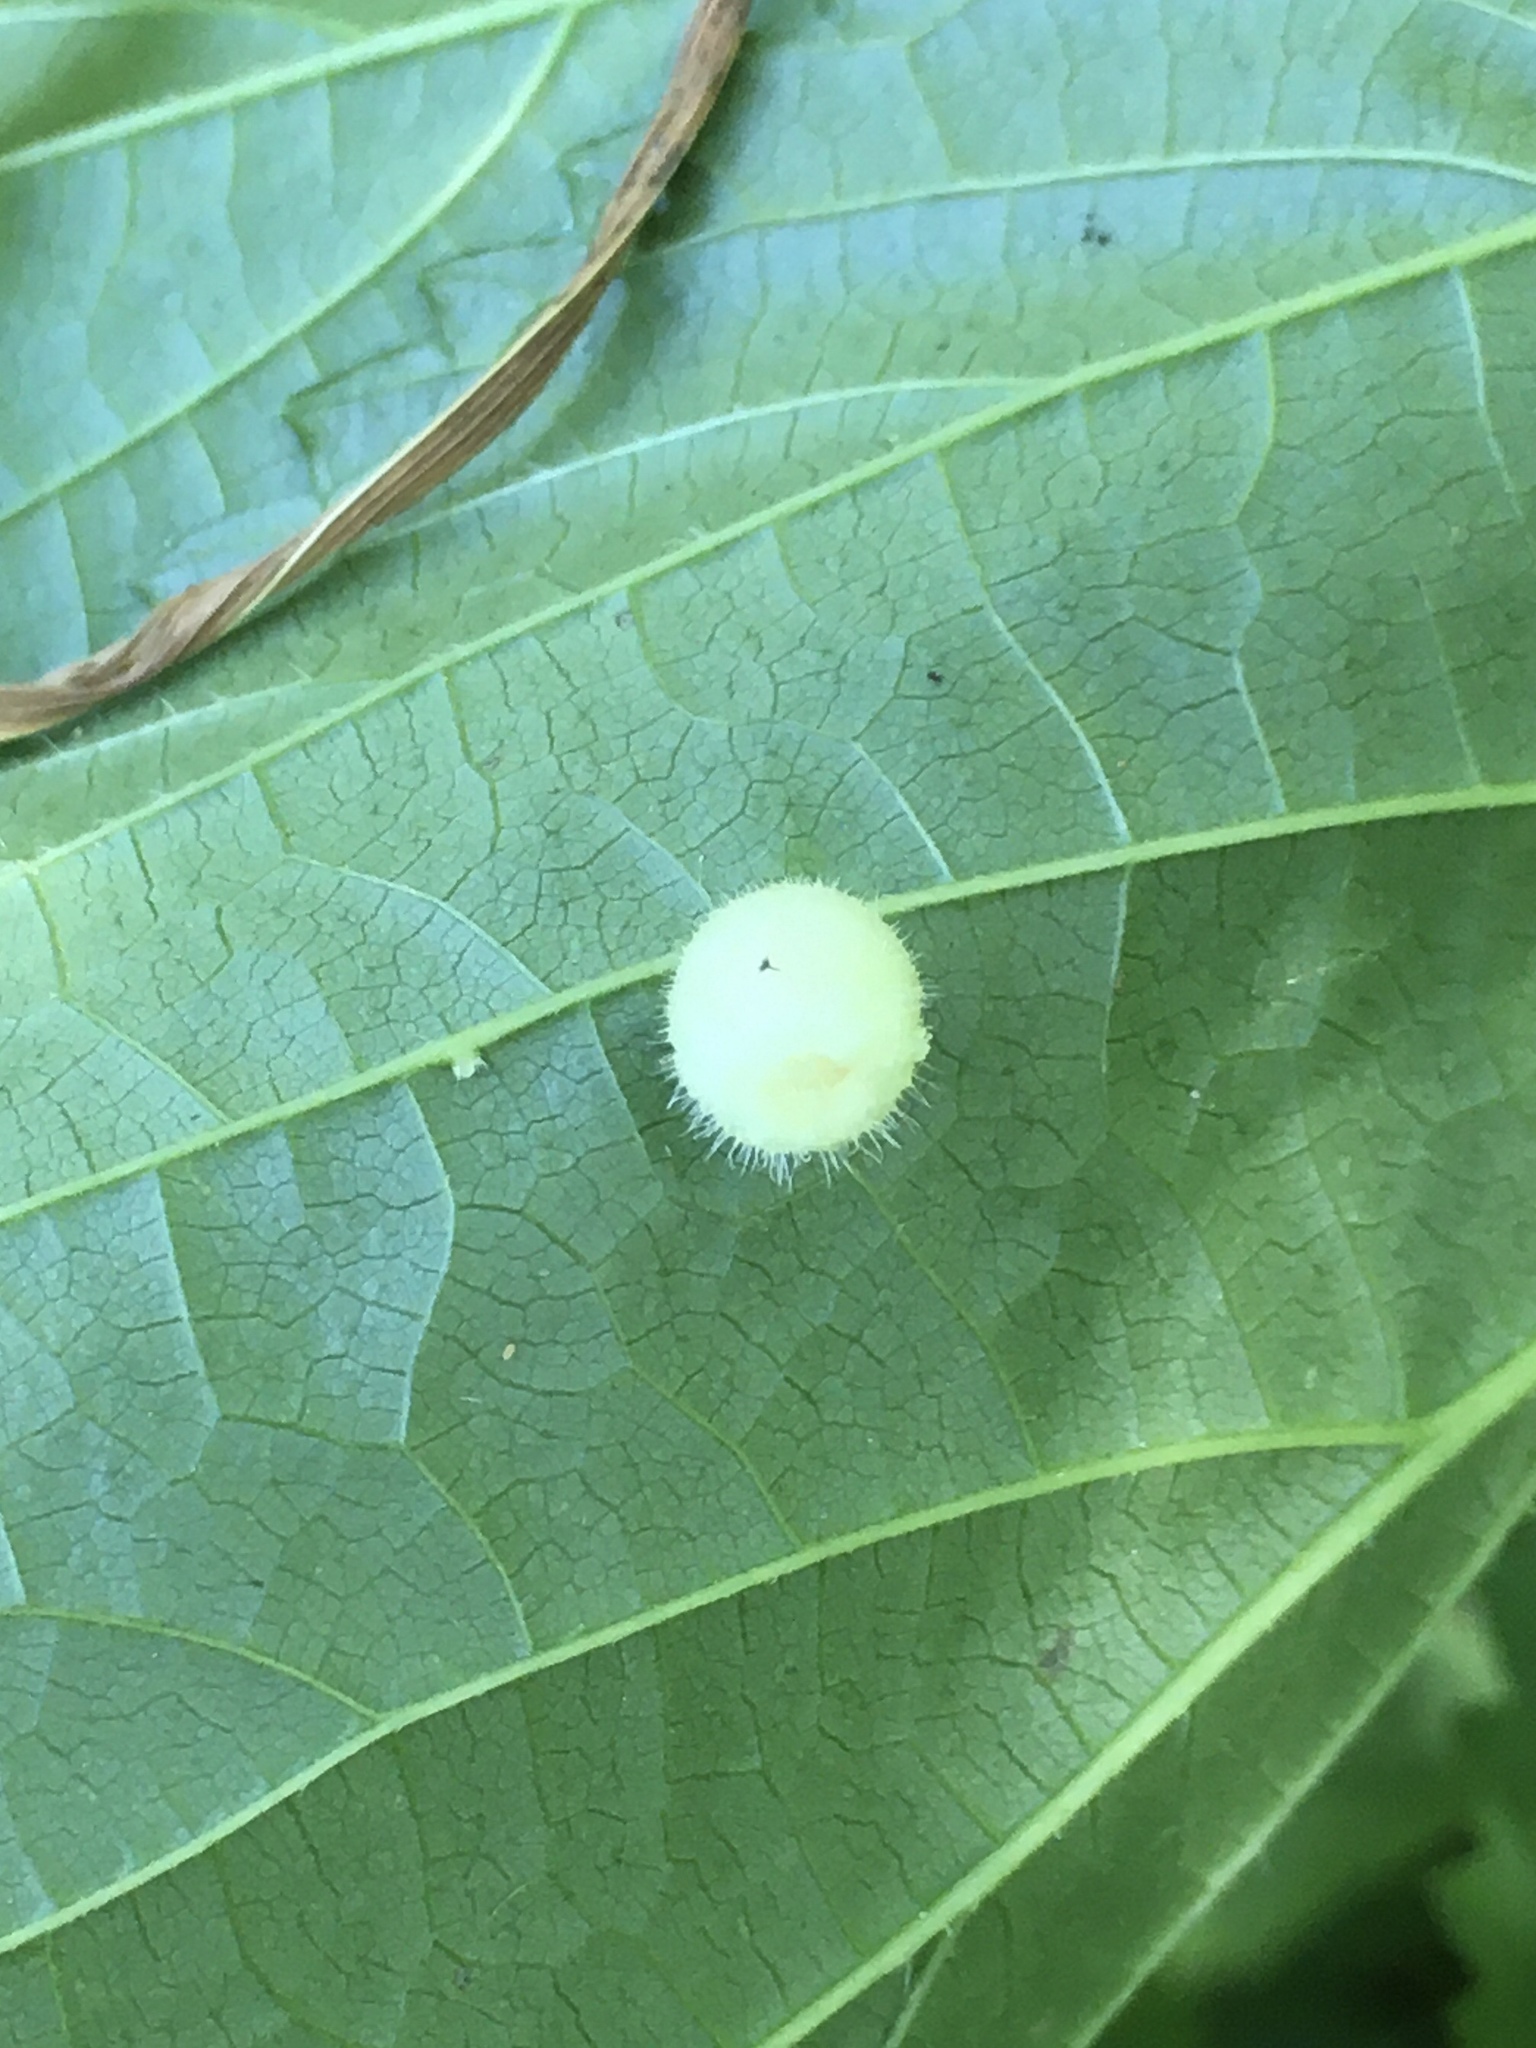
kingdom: Animalia
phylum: Arthropoda
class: Insecta
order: Diptera
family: Cecidomyiidae
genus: Dasineura
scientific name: Dasineura pilosa
